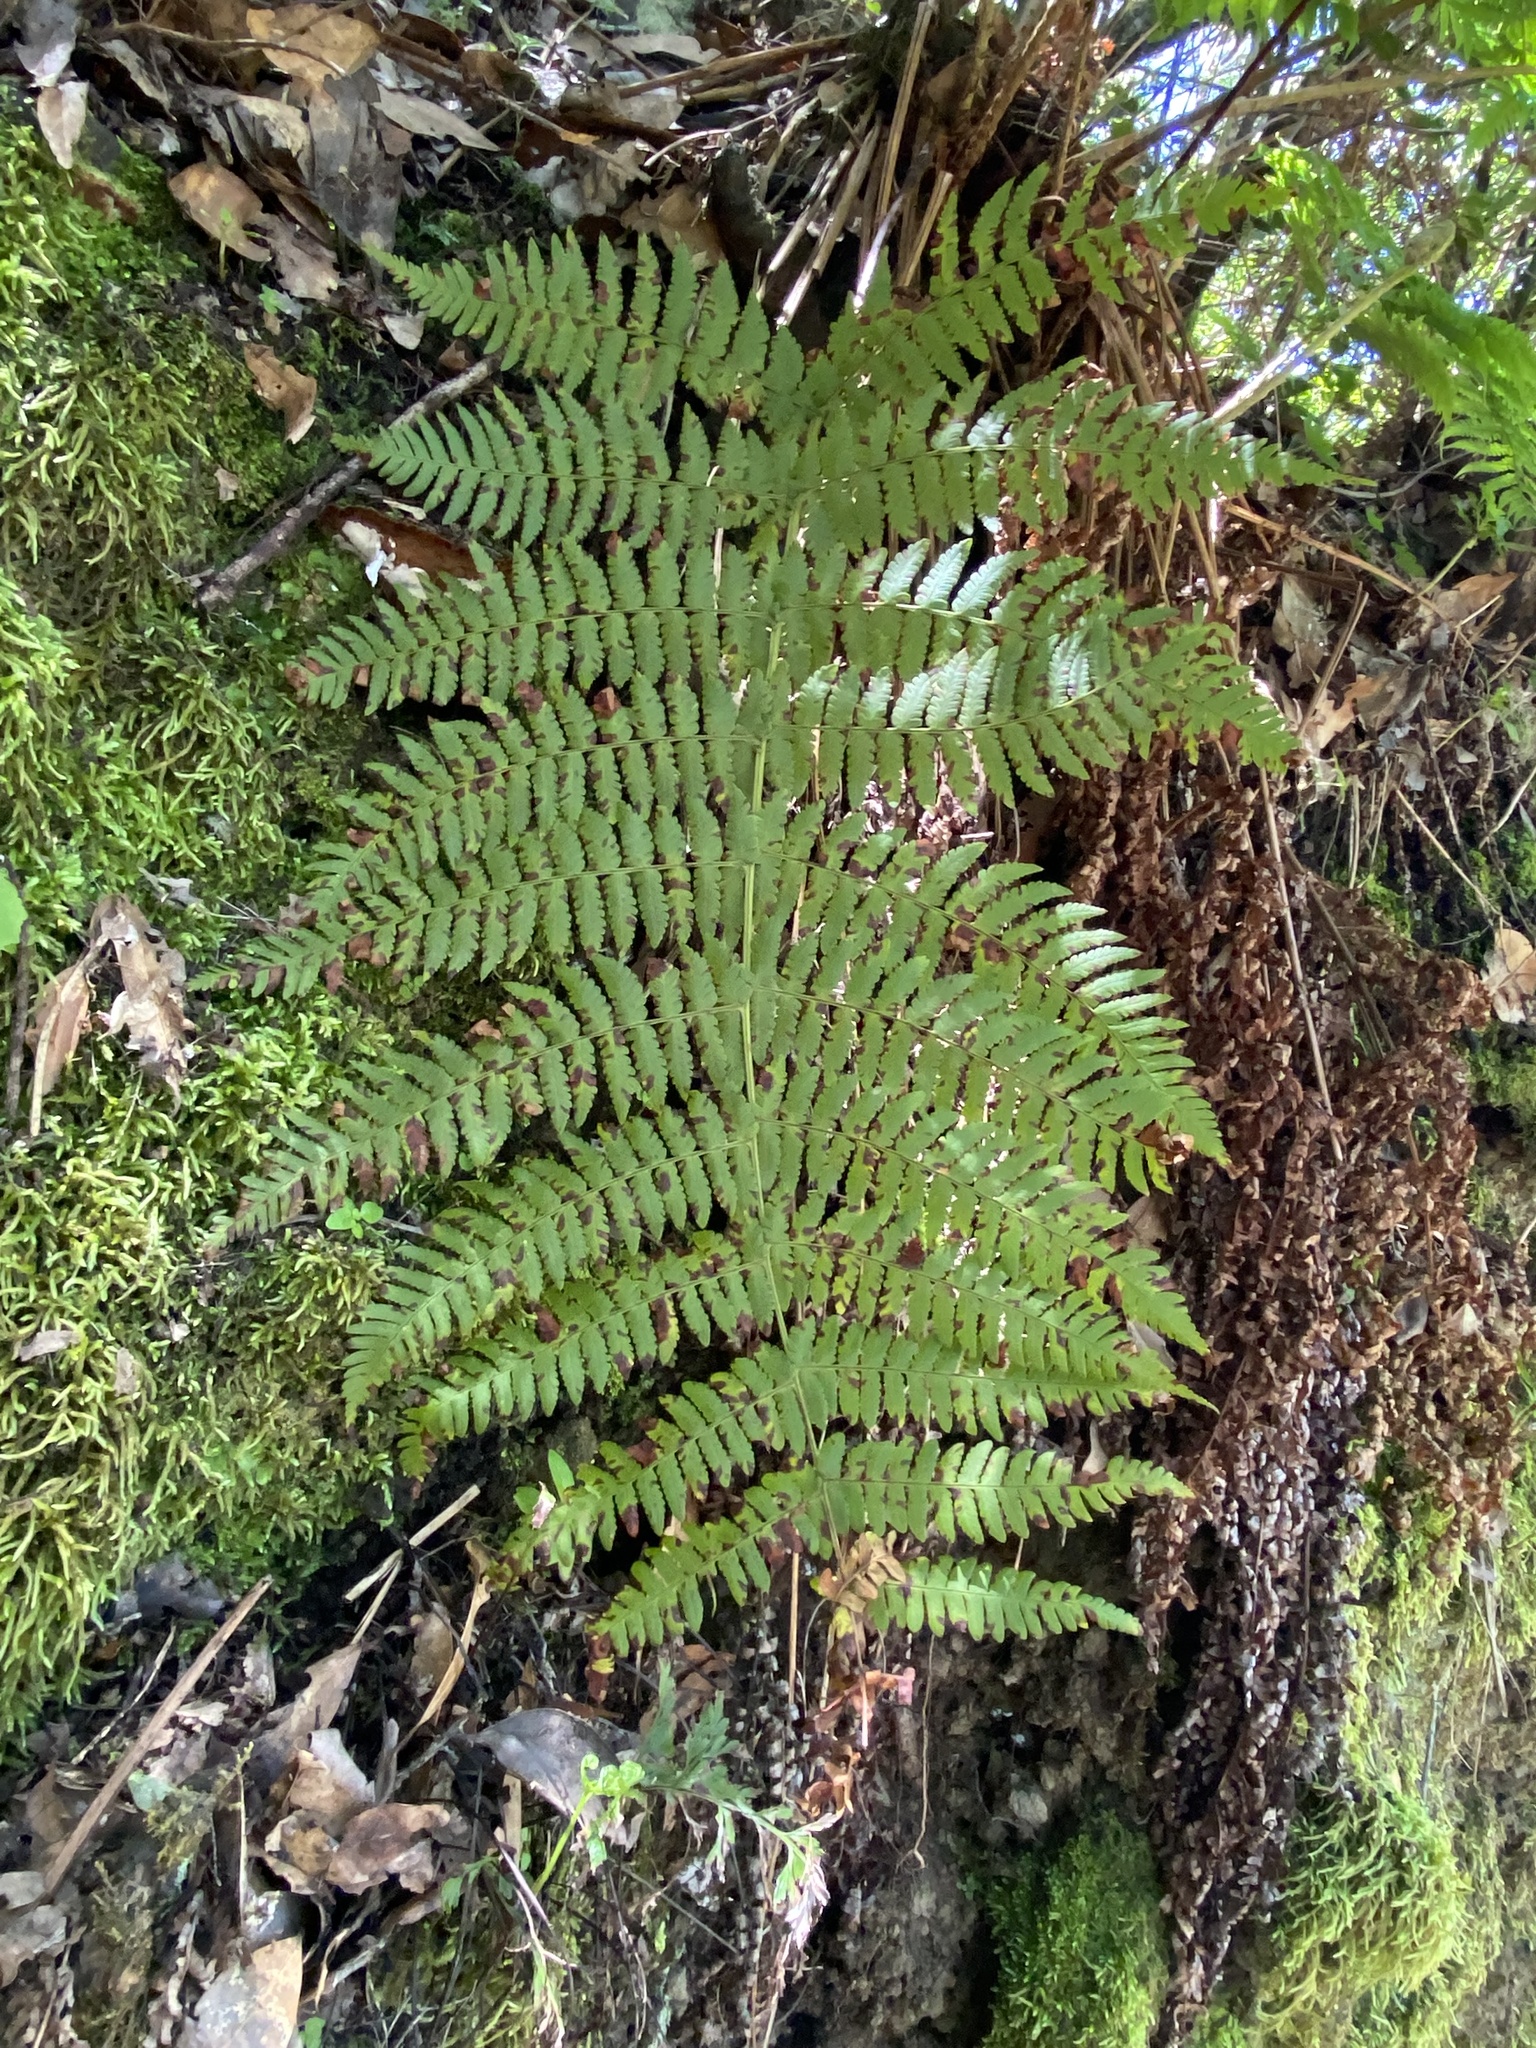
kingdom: Plantae
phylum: Tracheophyta
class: Polypodiopsida
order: Polypodiales
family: Dryopteridaceae
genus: Dryopteris
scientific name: Dryopteris oligodonta
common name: Canarian male-fern
